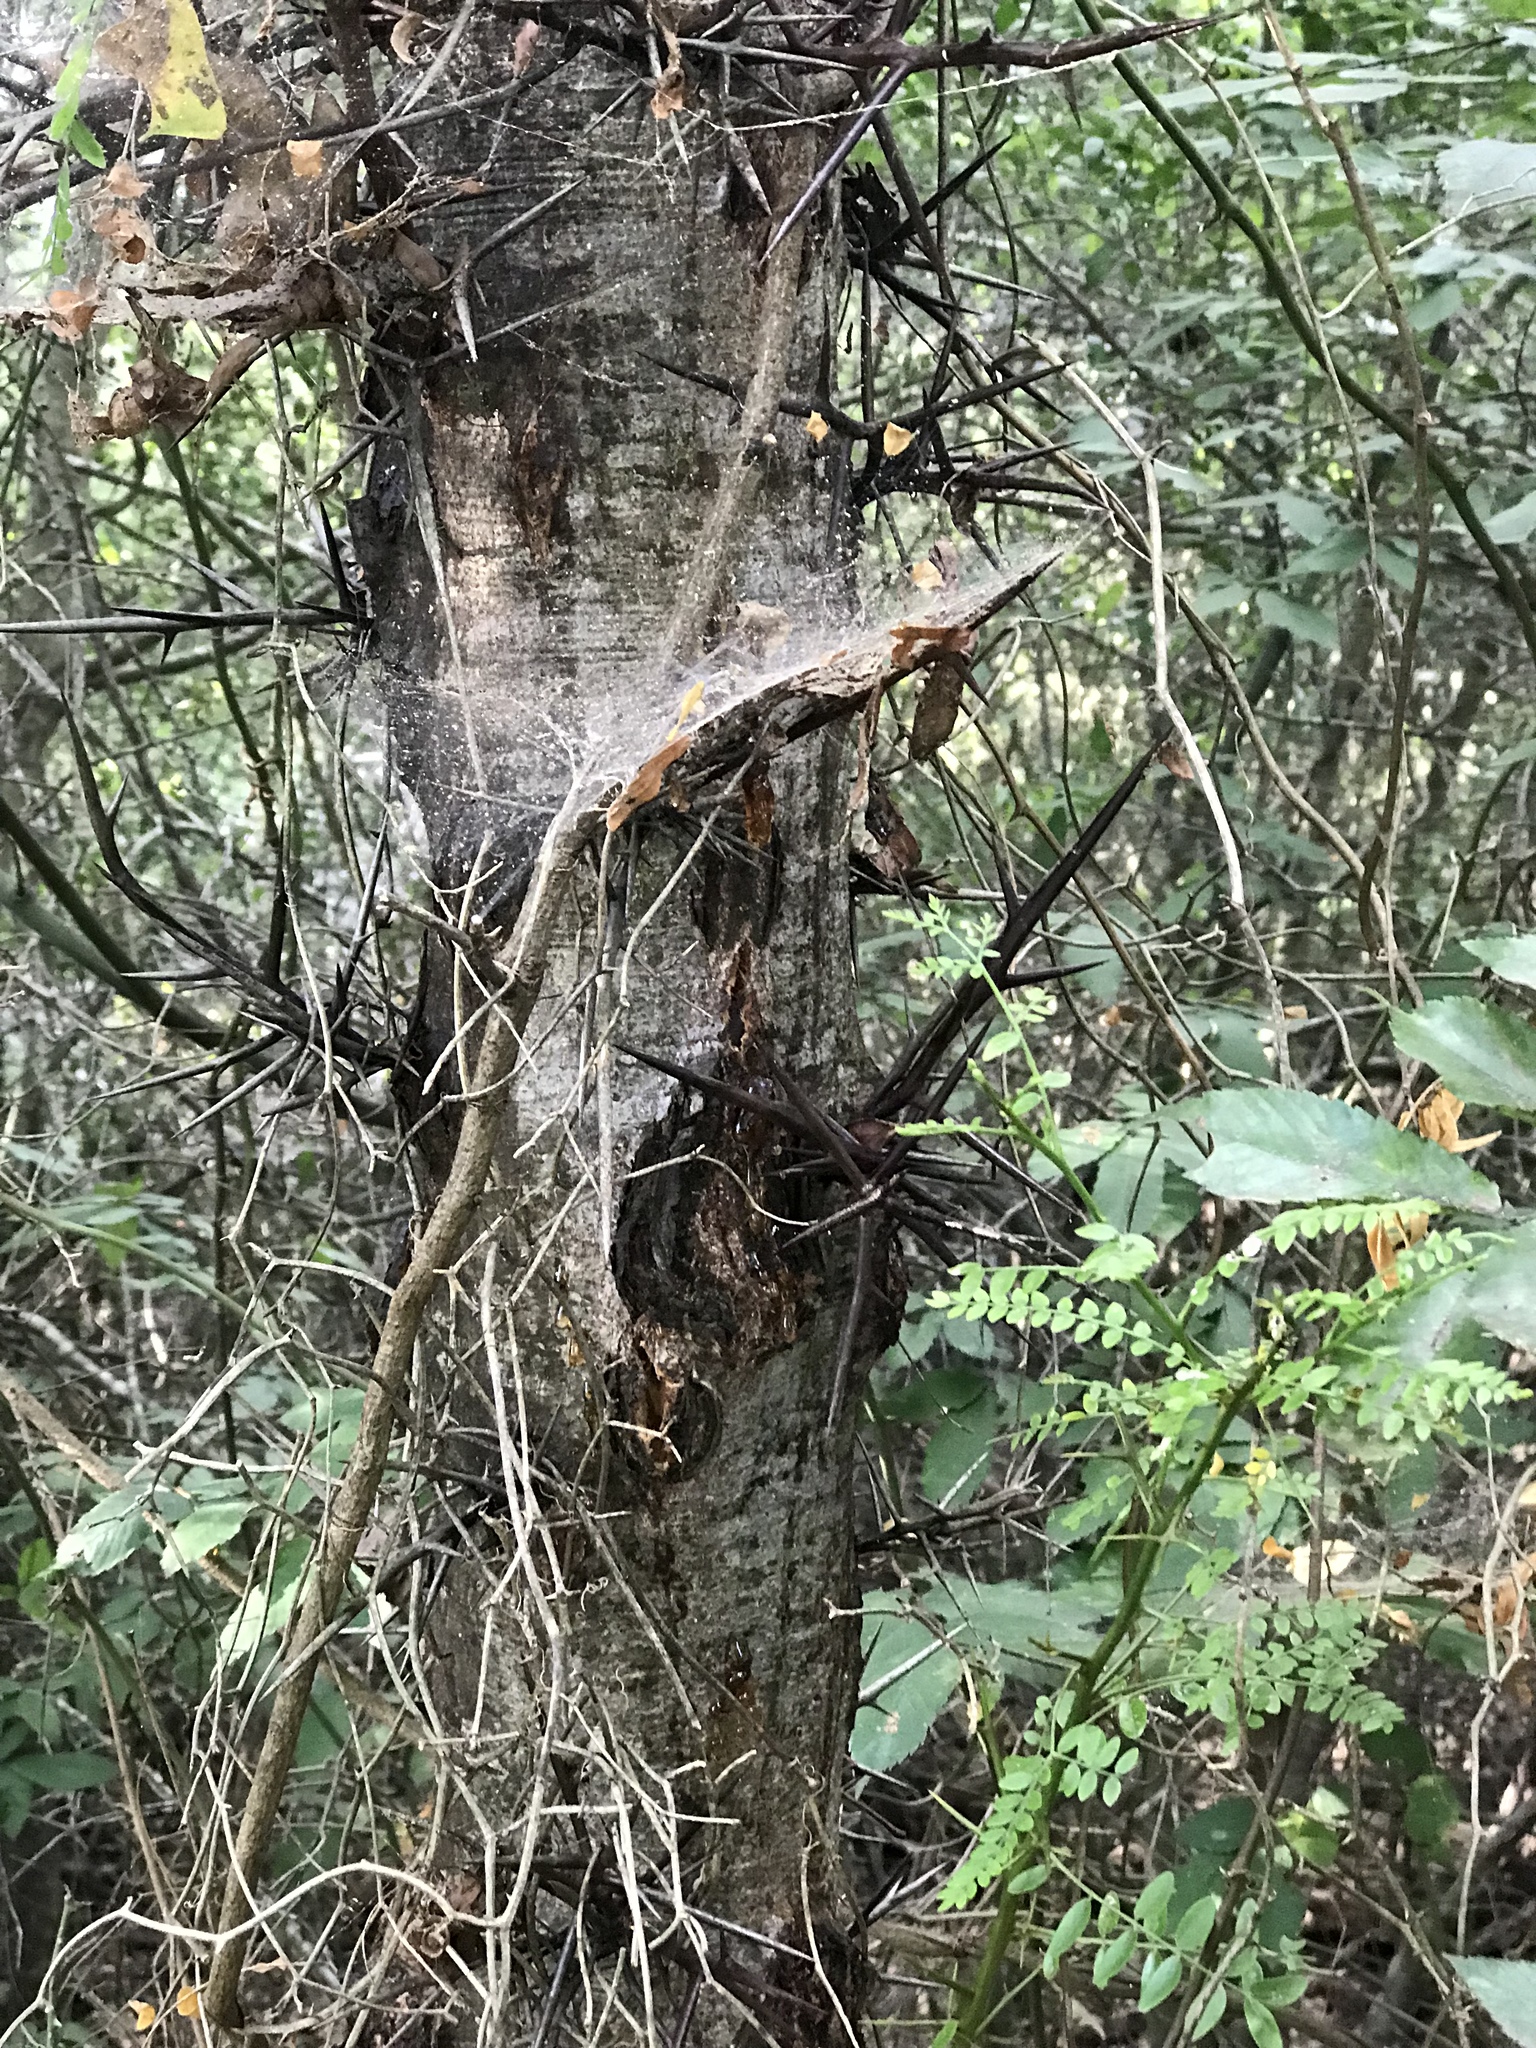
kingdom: Plantae
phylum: Tracheophyta
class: Magnoliopsida
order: Fabales
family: Fabaceae
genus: Gleditsia
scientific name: Gleditsia triacanthos
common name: Common honeylocust
